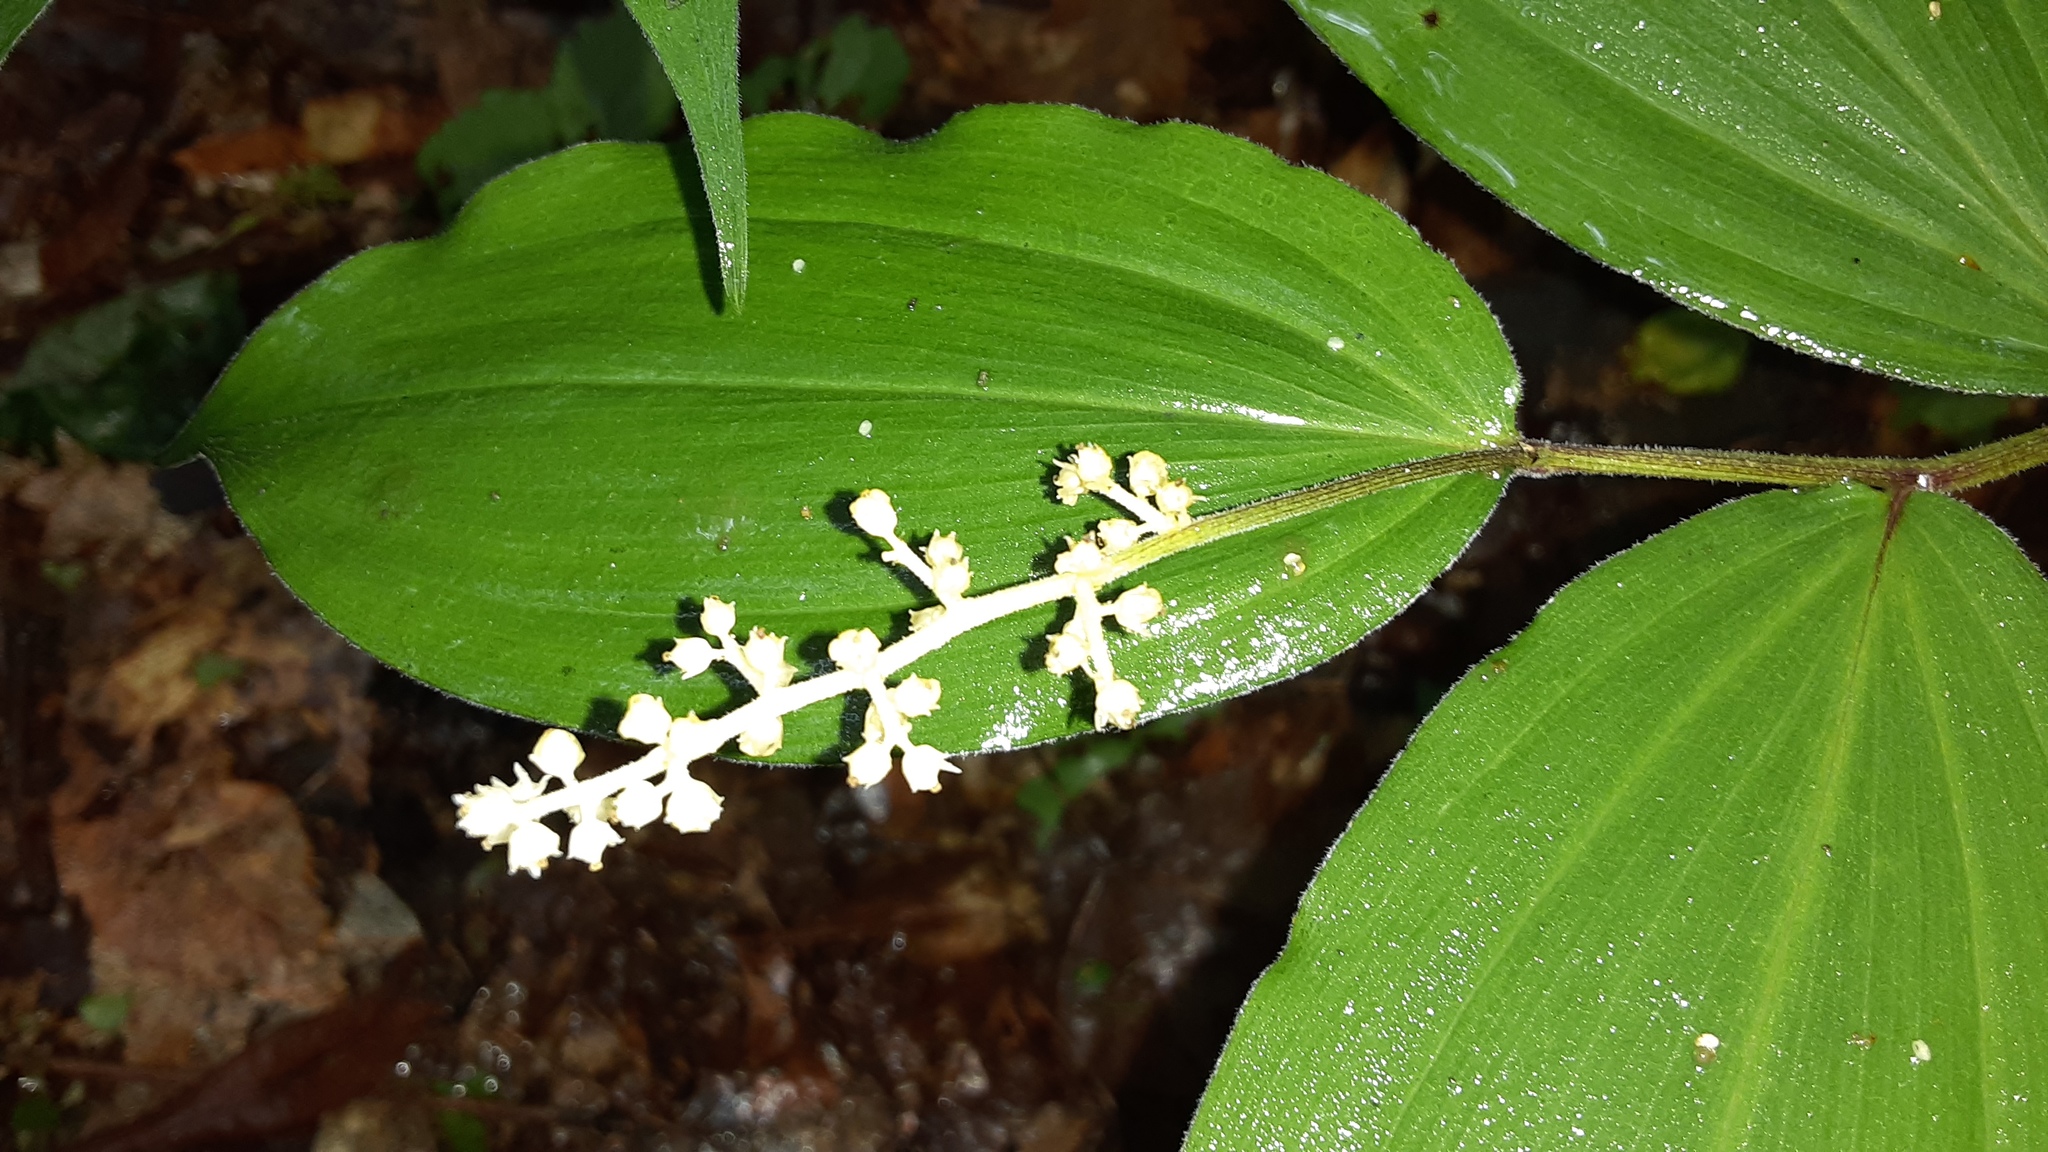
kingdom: Plantae
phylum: Tracheophyta
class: Liliopsida
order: Asparagales
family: Asparagaceae
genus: Maianthemum
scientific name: Maianthemum racemosum
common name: False spikenard
